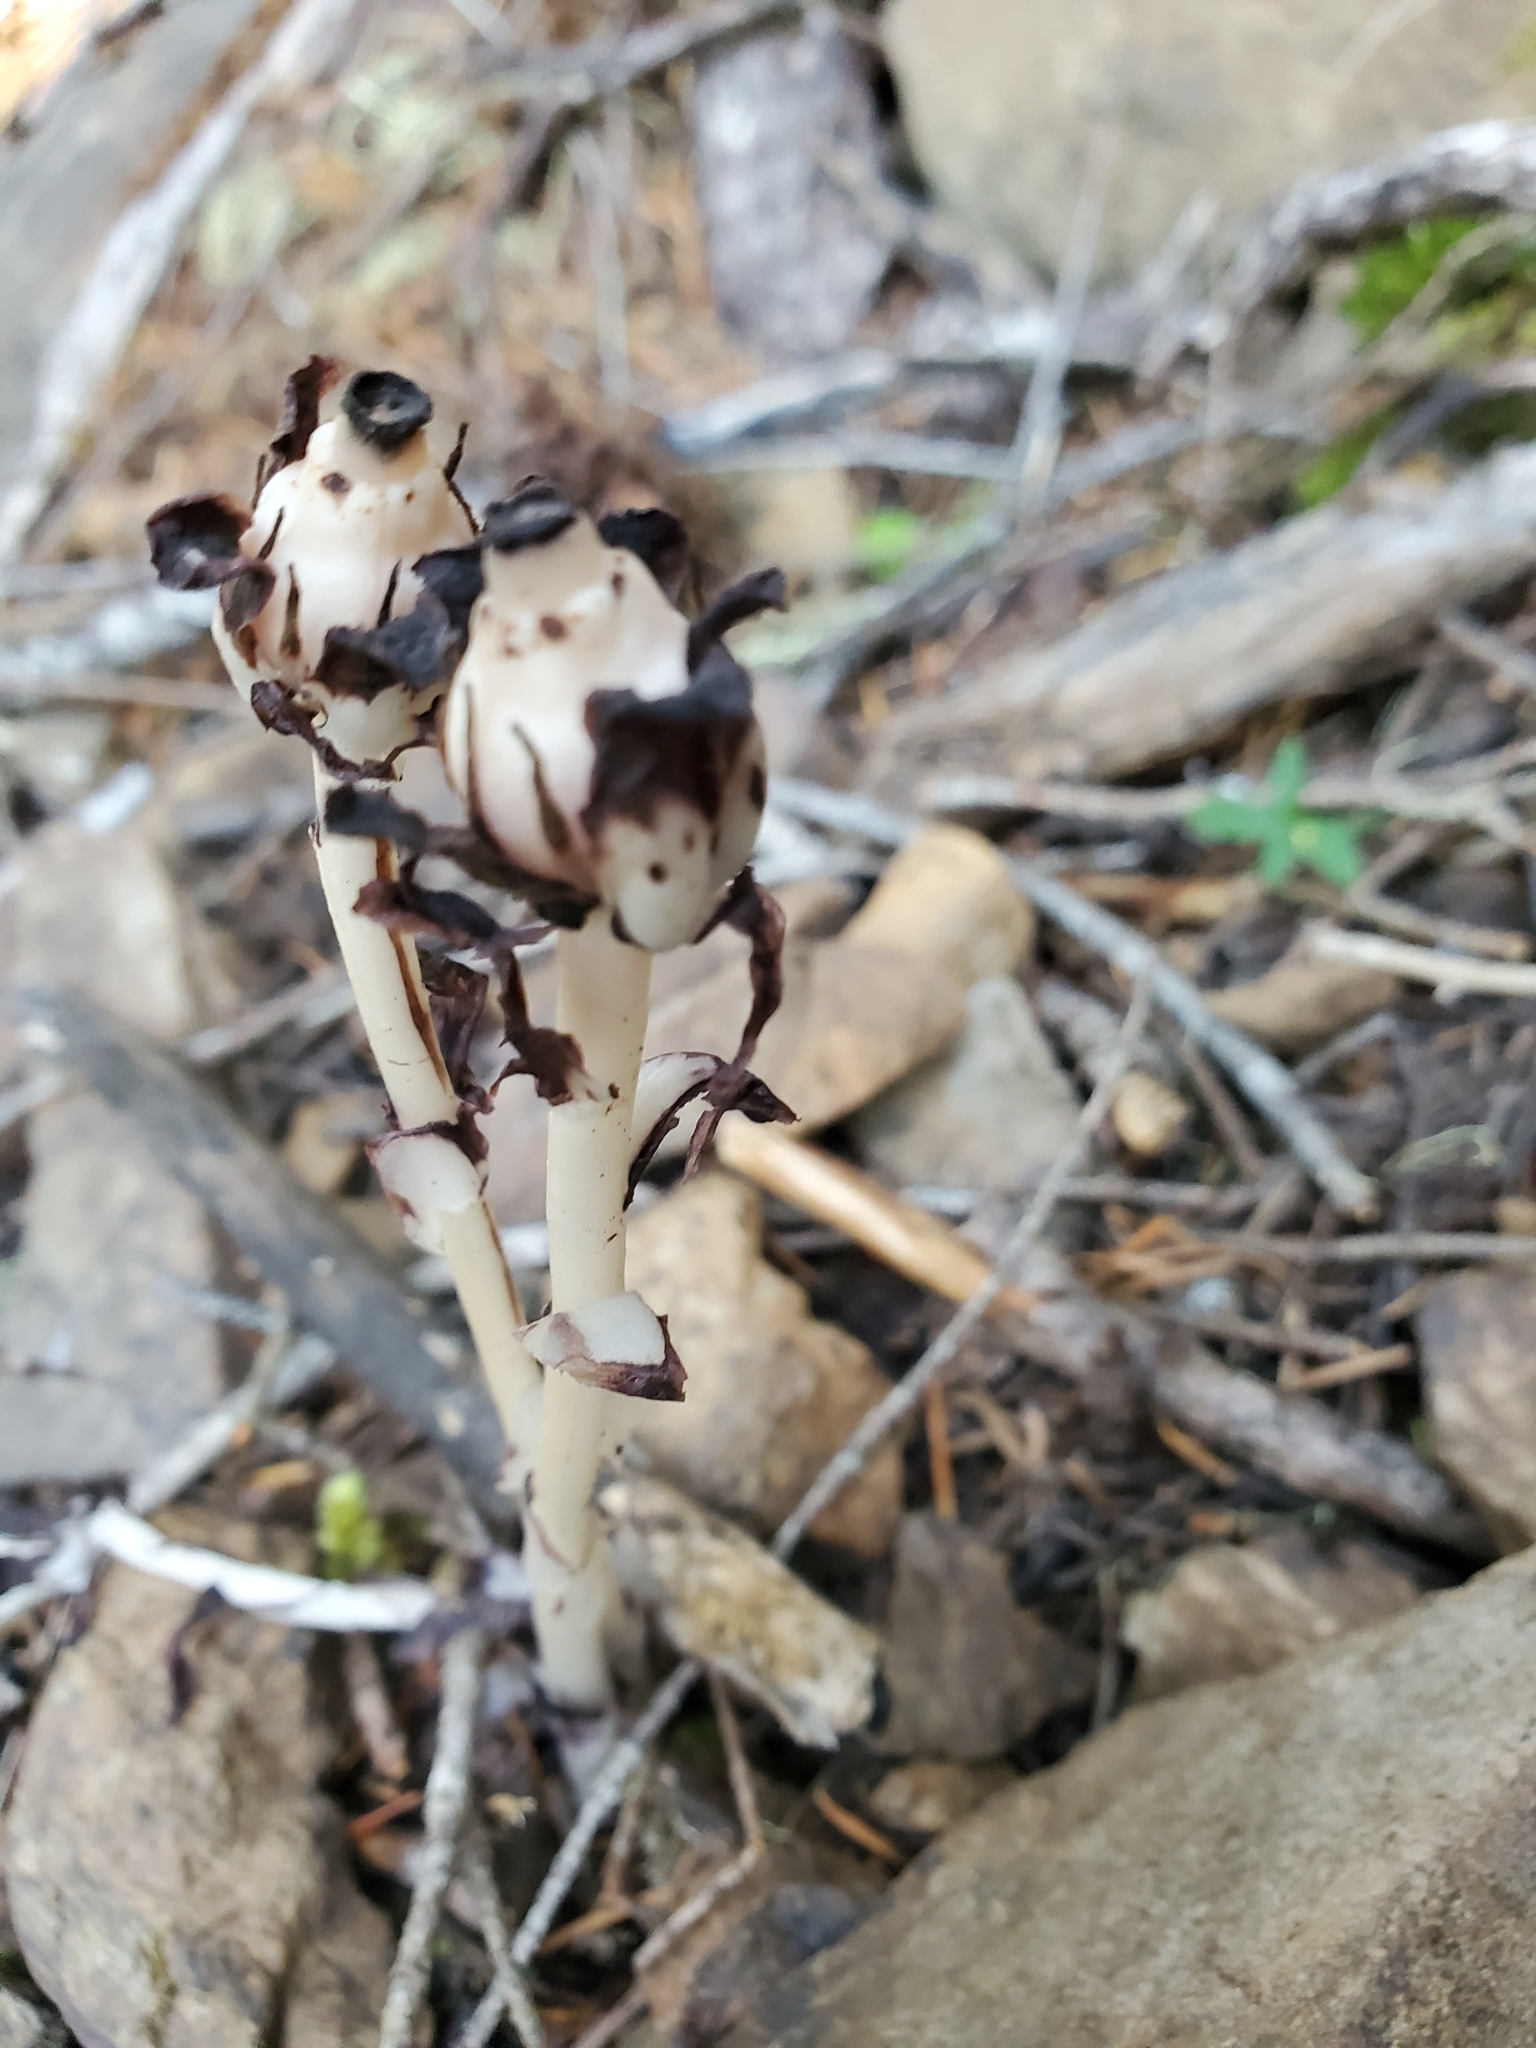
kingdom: Plantae
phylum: Tracheophyta
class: Magnoliopsida
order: Ericales
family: Ericaceae
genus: Monotropa
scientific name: Monotropa uniflora
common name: Convulsion root
